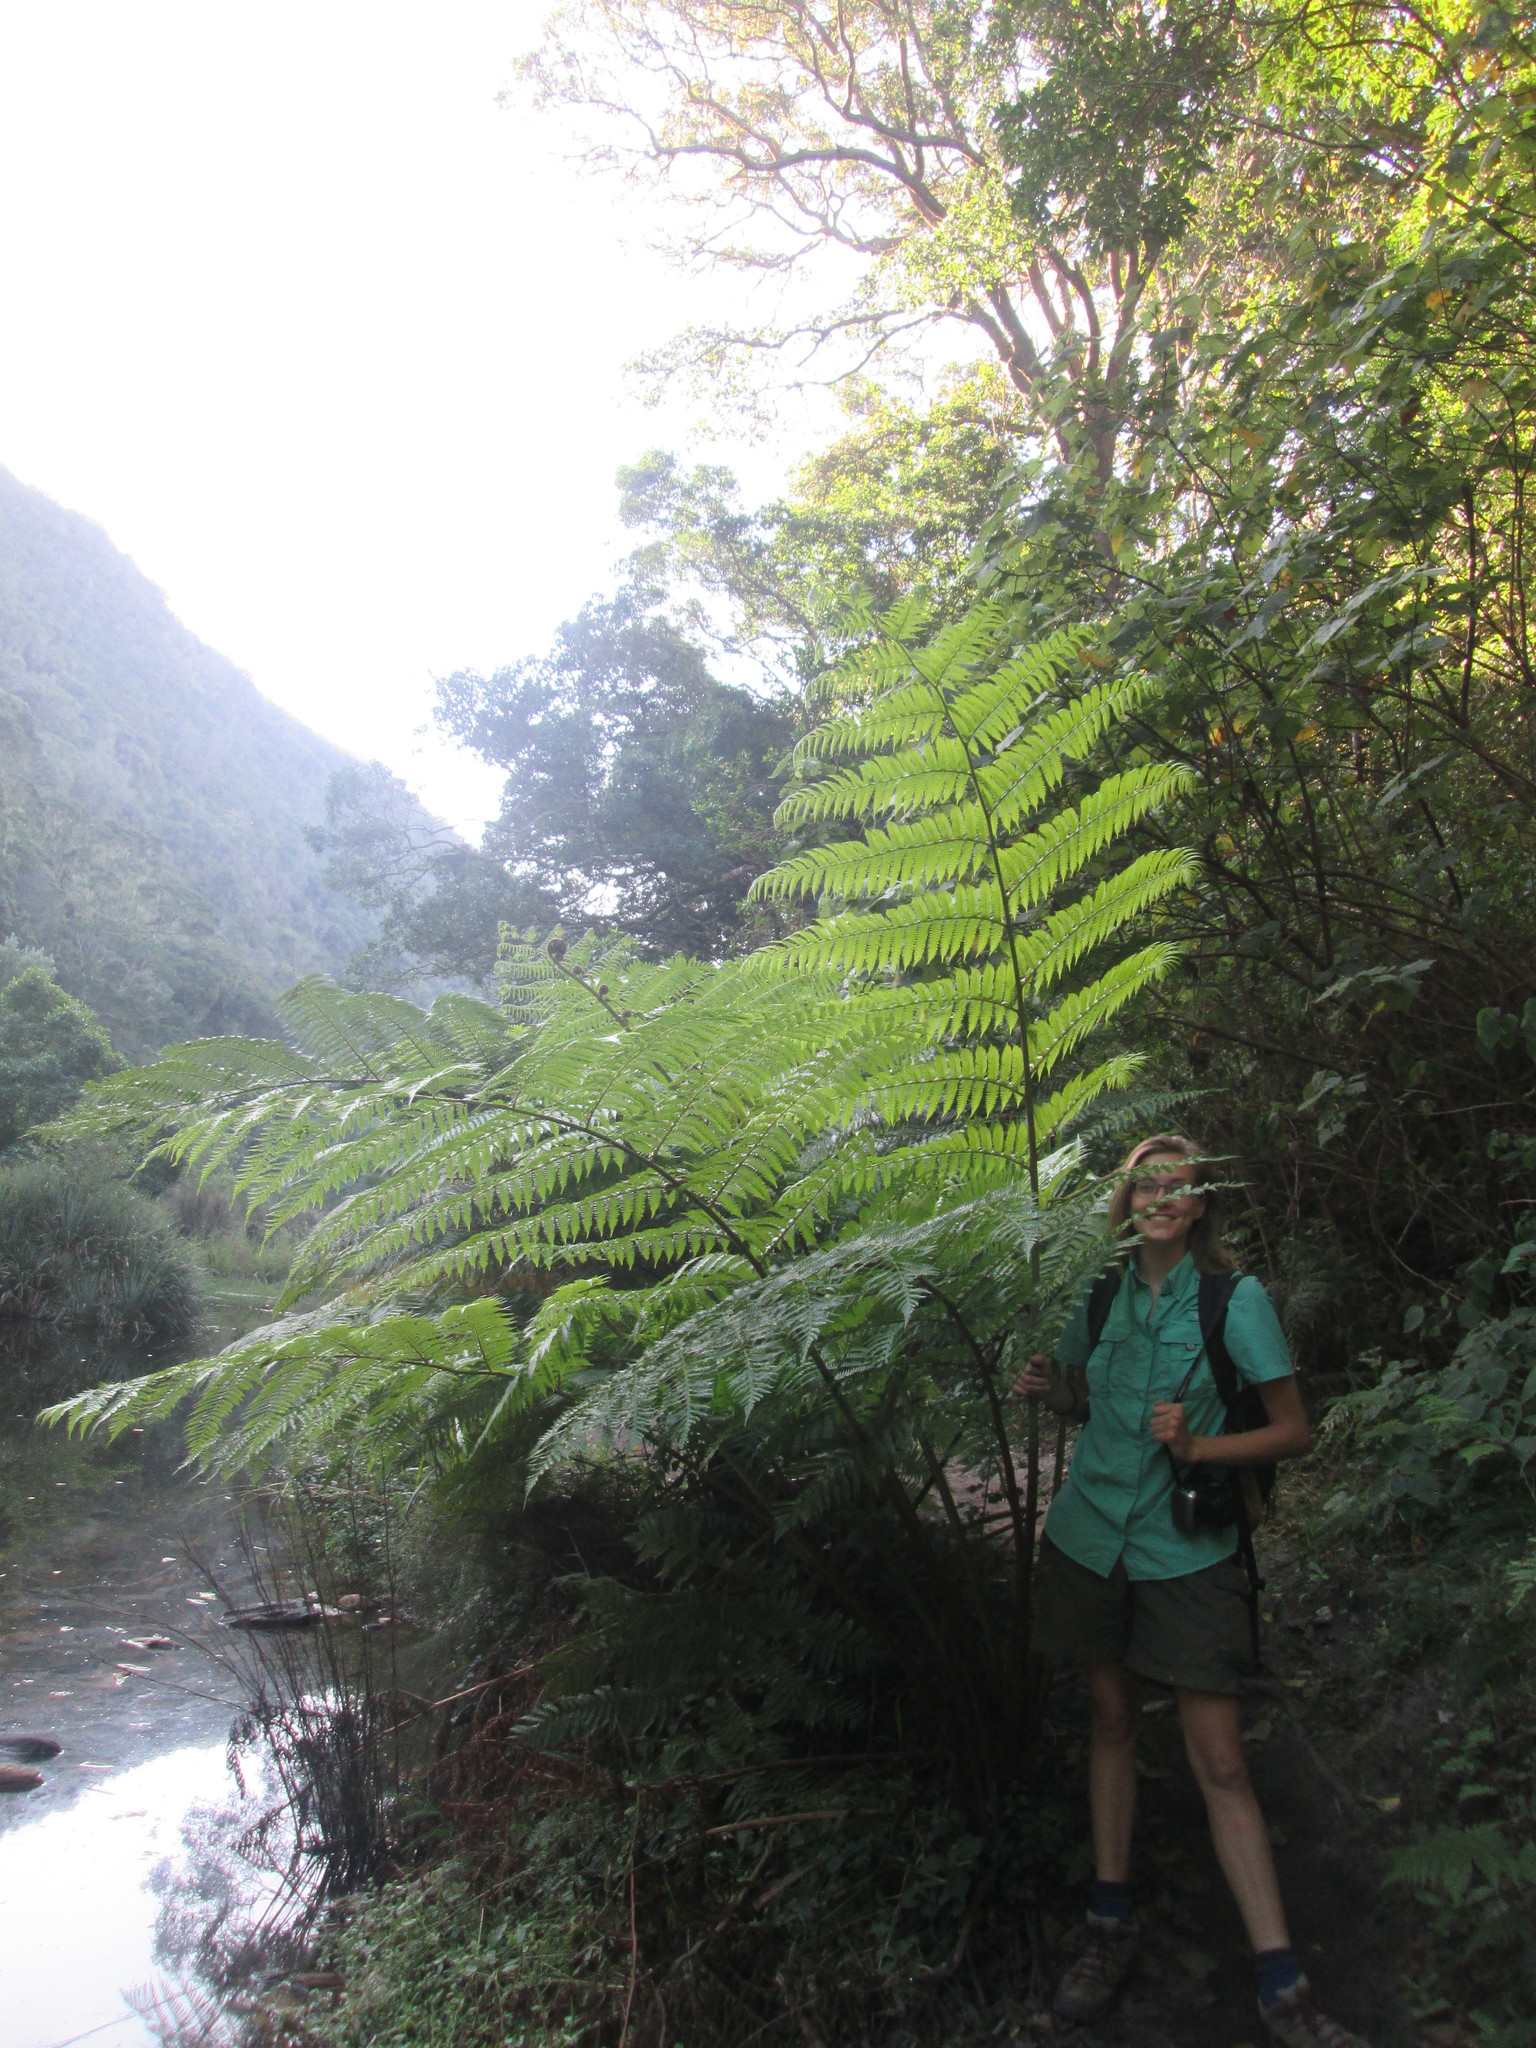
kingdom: Plantae
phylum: Tracheophyta
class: Polypodiopsida
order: Cyatheales
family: Cyatheaceae
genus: Sphaeropteris
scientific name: Sphaeropteris cooperi
